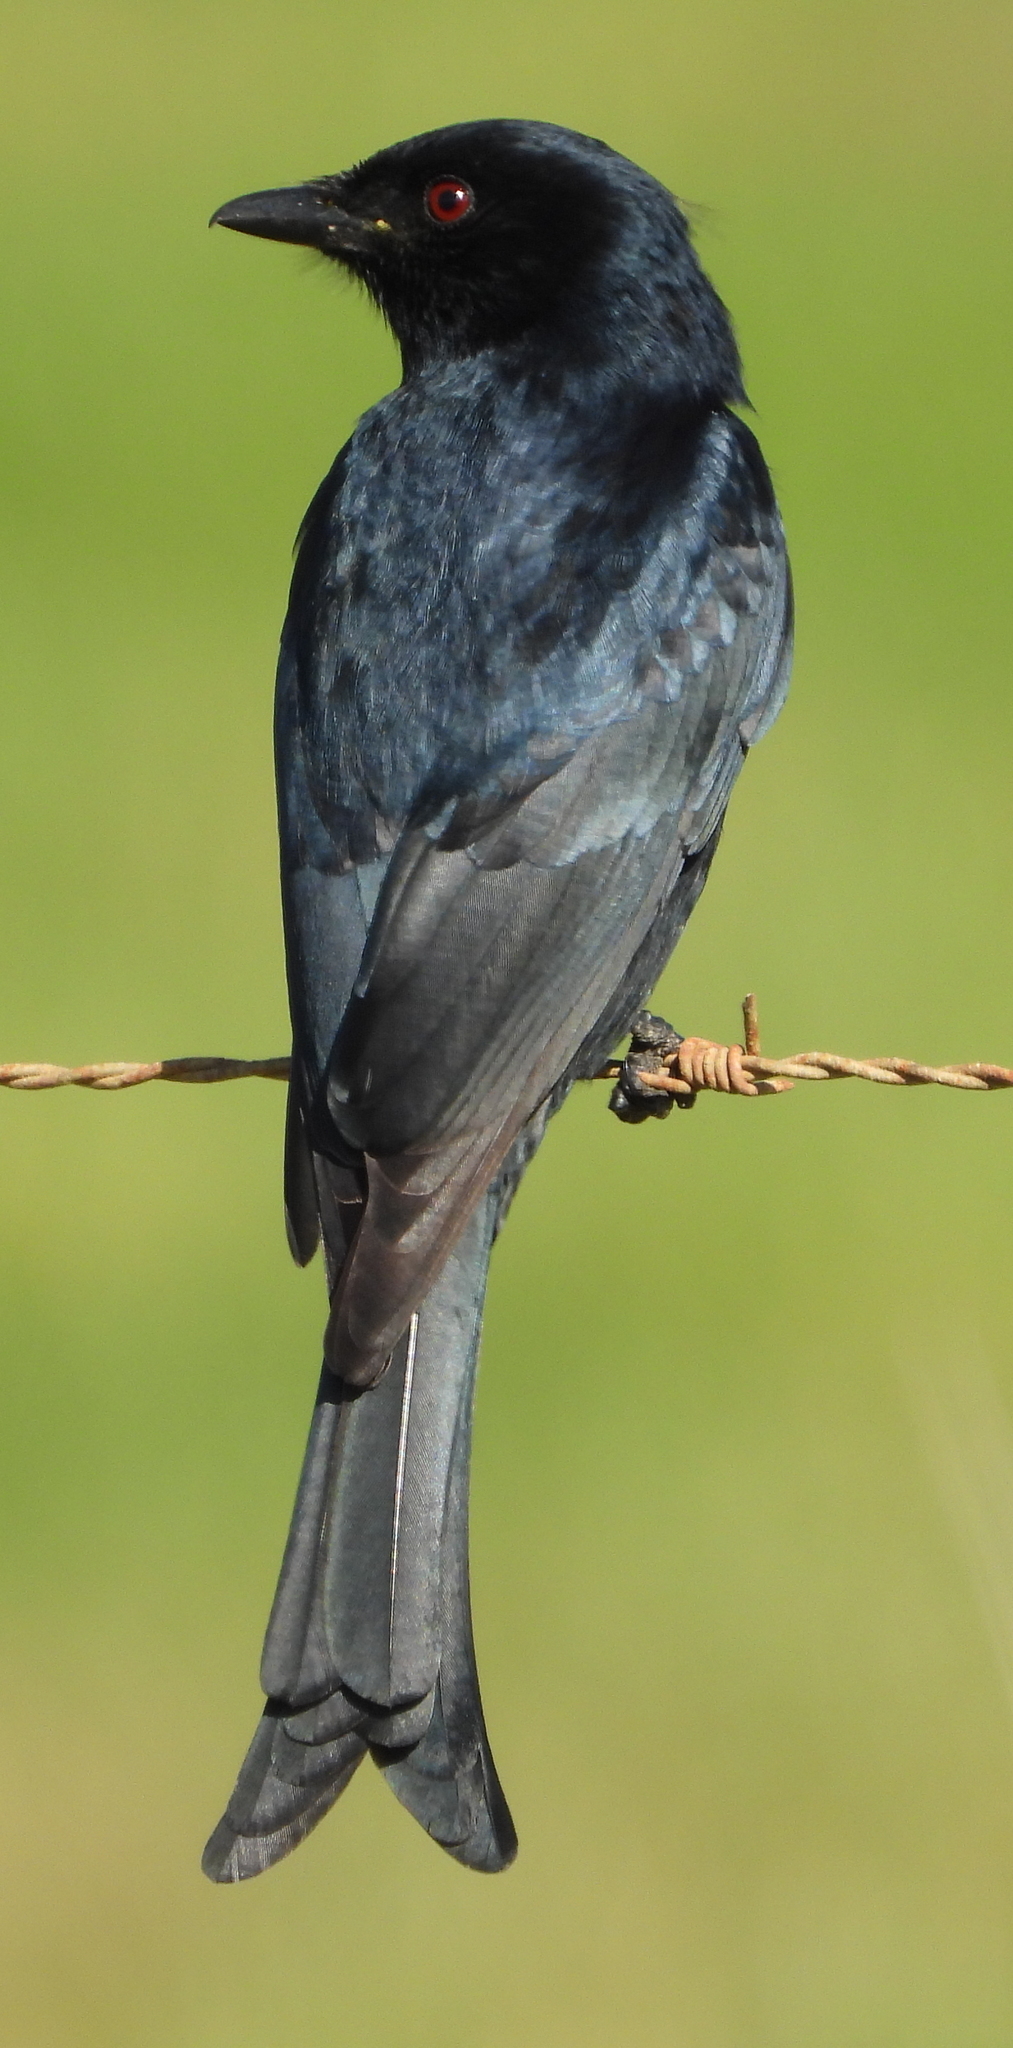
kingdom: Animalia
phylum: Chordata
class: Aves
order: Passeriformes
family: Dicruridae
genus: Dicrurus
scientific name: Dicrurus adsimilis
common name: Fork-tailed drongo
